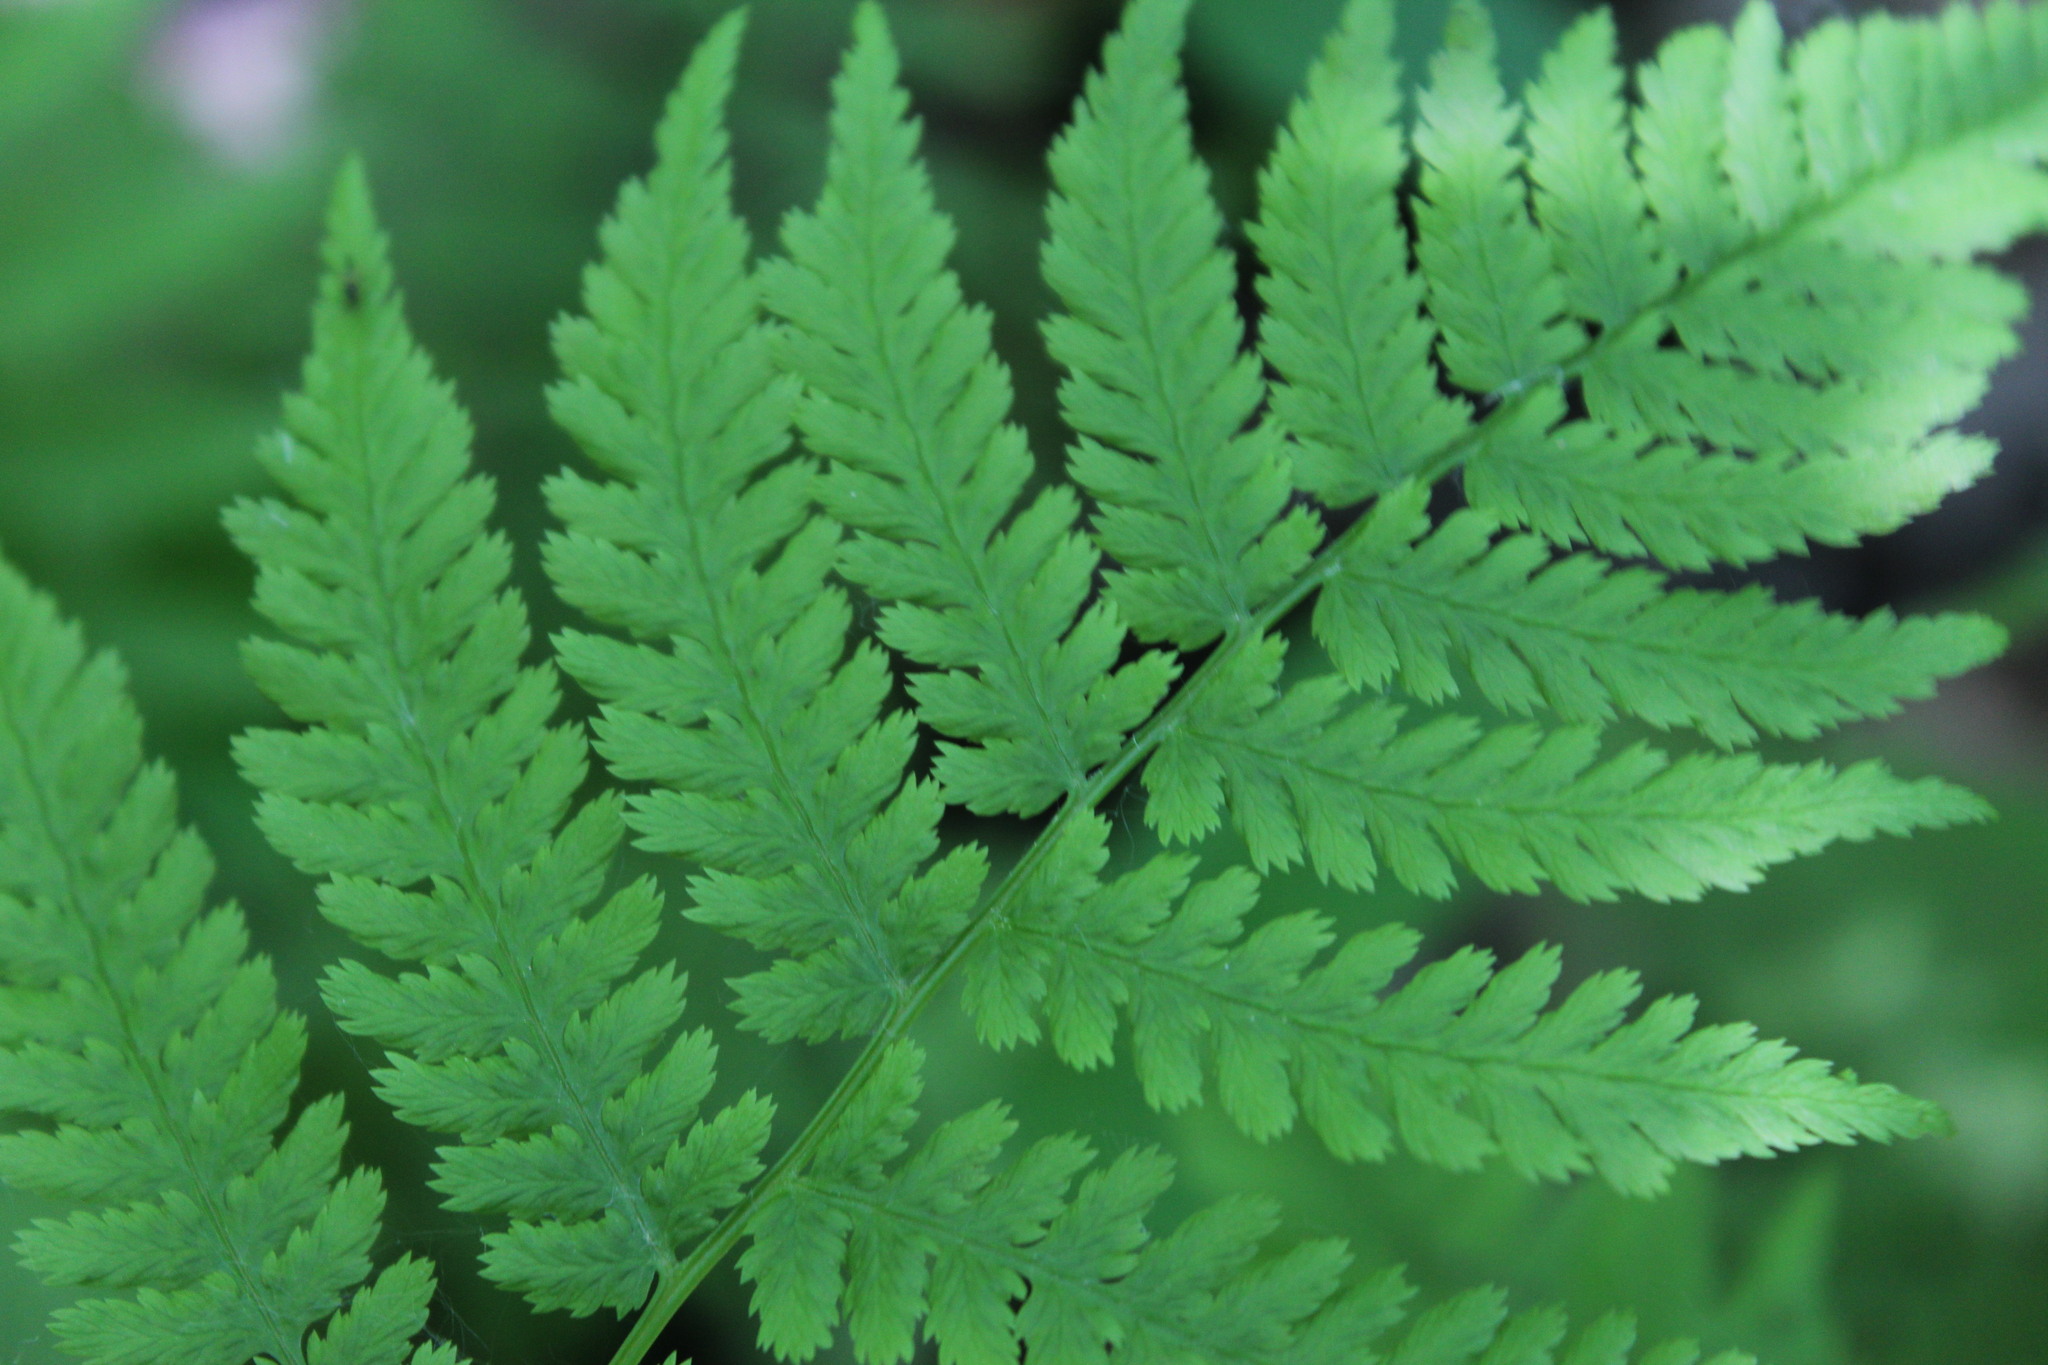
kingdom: Plantae
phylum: Tracheophyta
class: Polypodiopsida
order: Polypodiales
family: Athyriaceae
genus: Athyrium
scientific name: Athyrium angustum
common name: Northern lady fern
